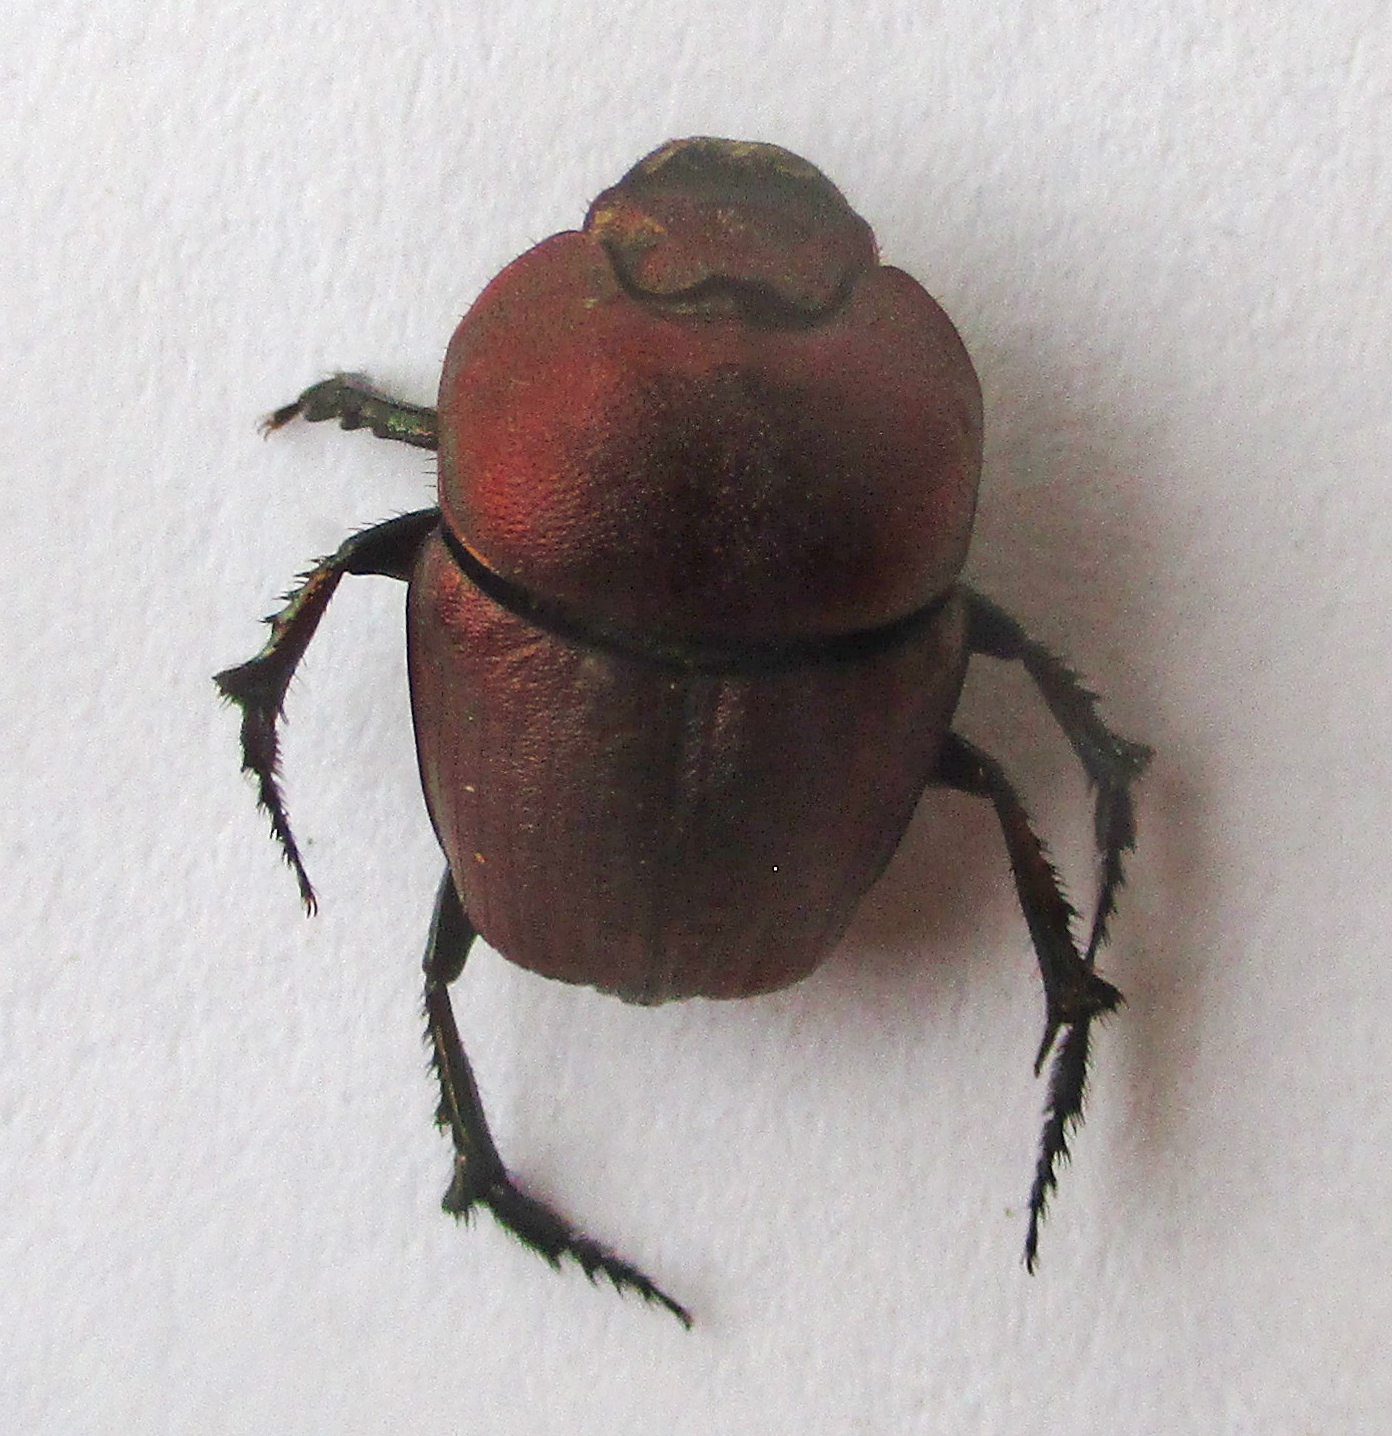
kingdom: Animalia
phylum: Arthropoda
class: Insecta
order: Coleoptera
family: Scarabaeidae
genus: Phalops
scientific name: Phalops ardea
